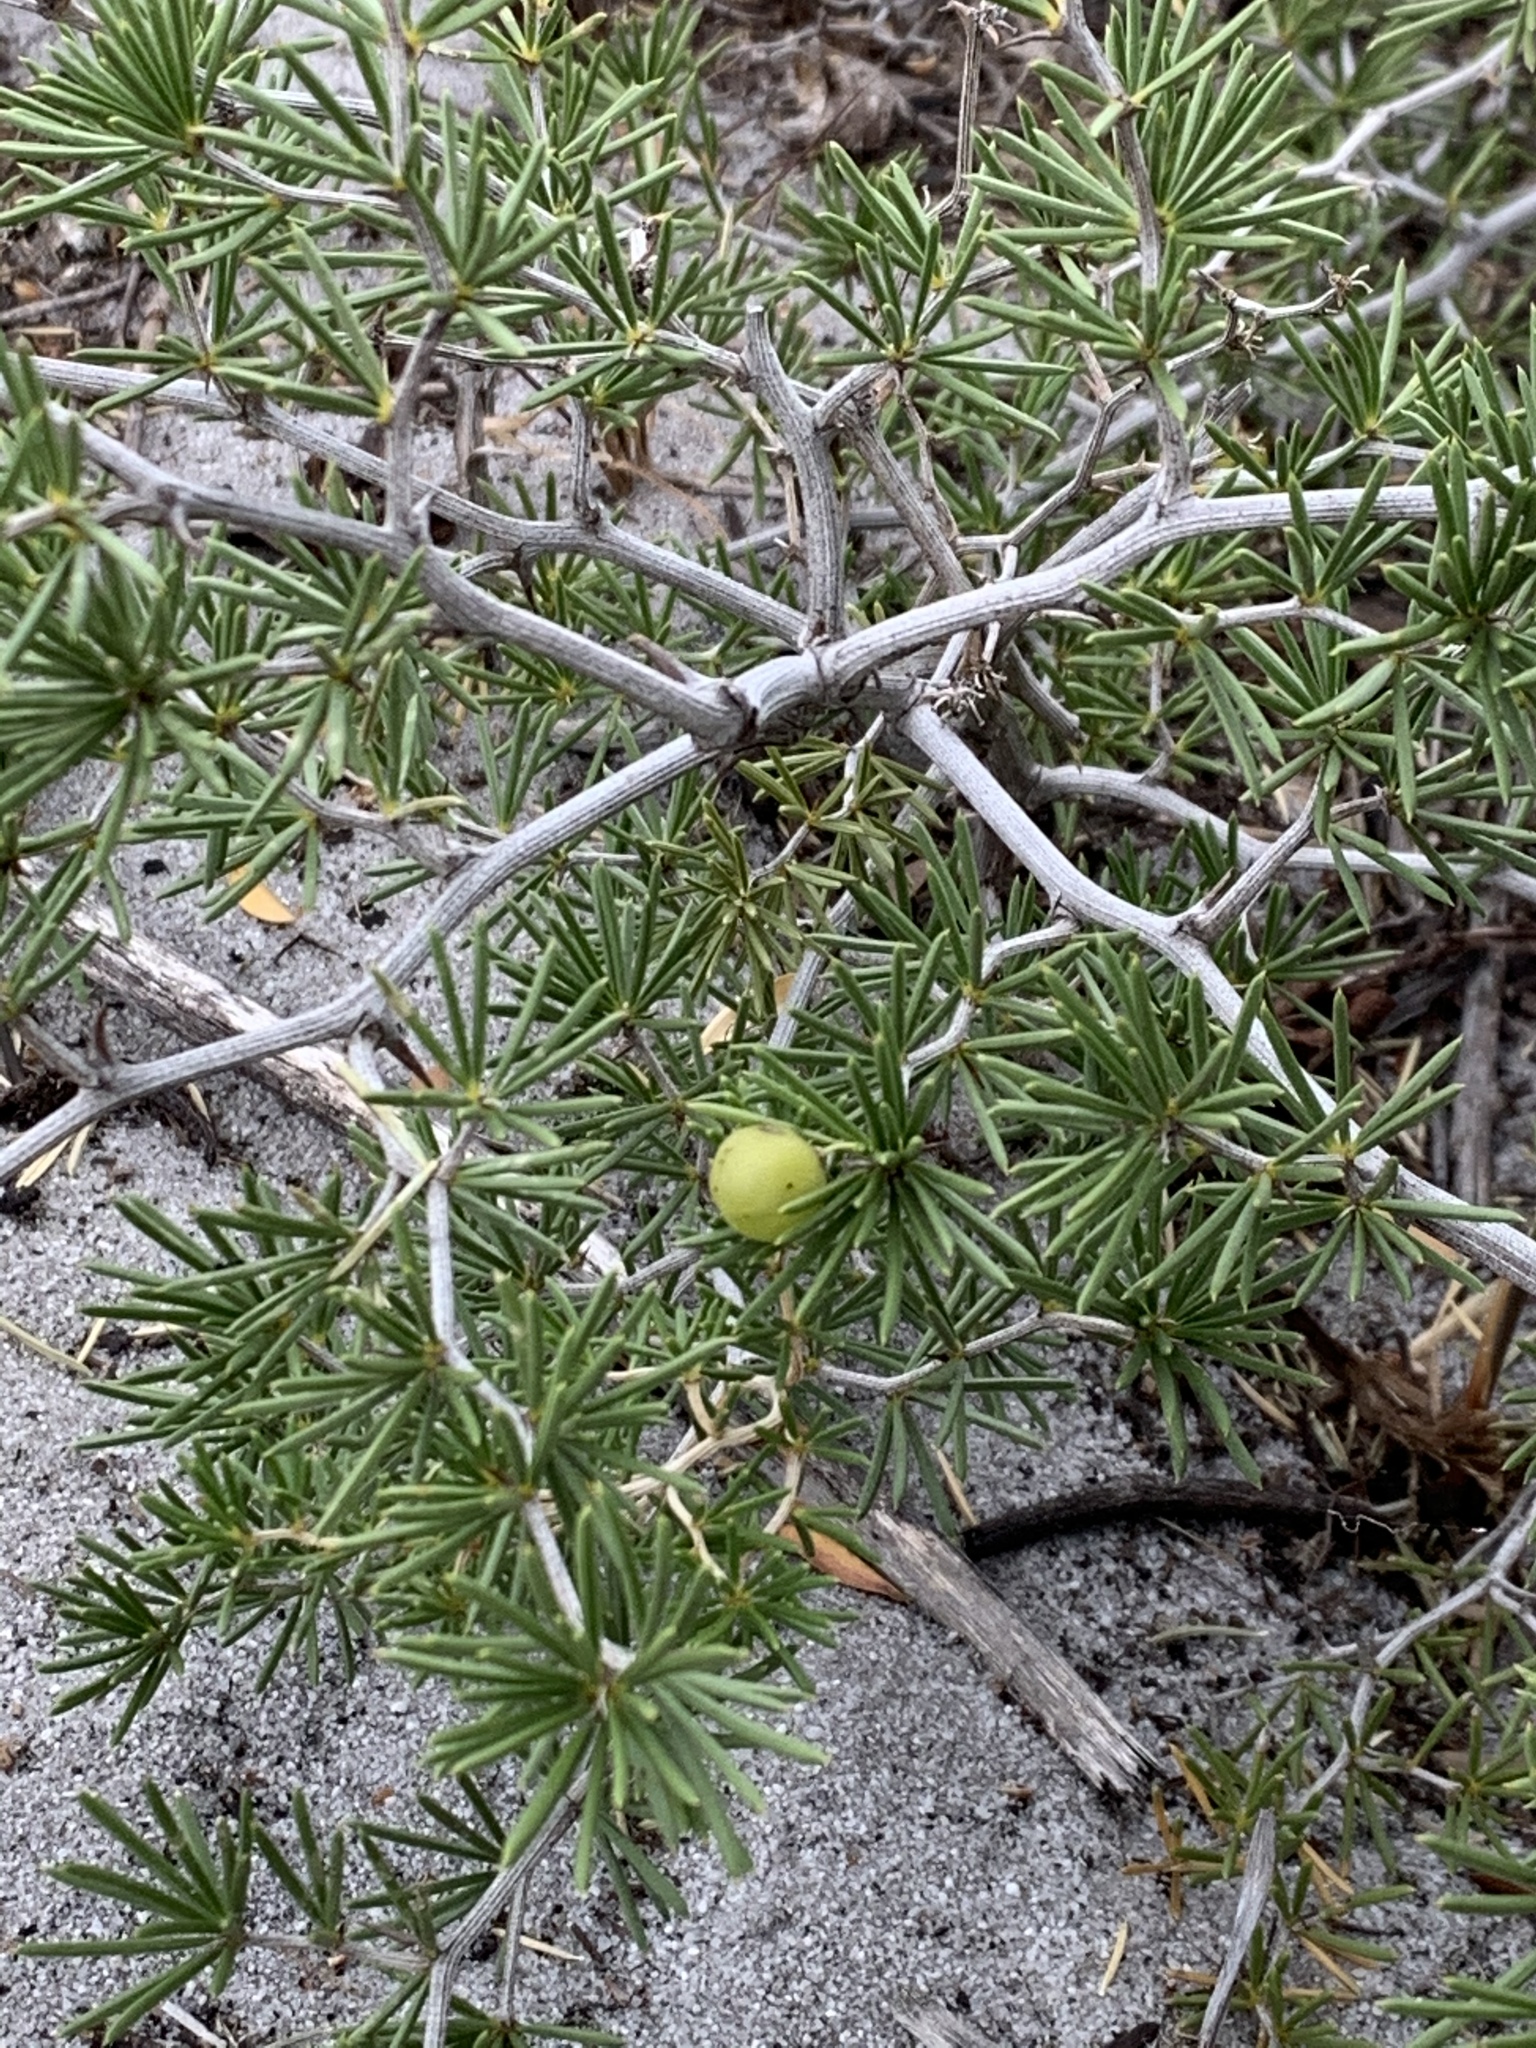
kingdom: Plantae
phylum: Tracheophyta
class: Liliopsida
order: Asparagales
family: Asparagaceae
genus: Asparagus
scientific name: Asparagus lignosus
